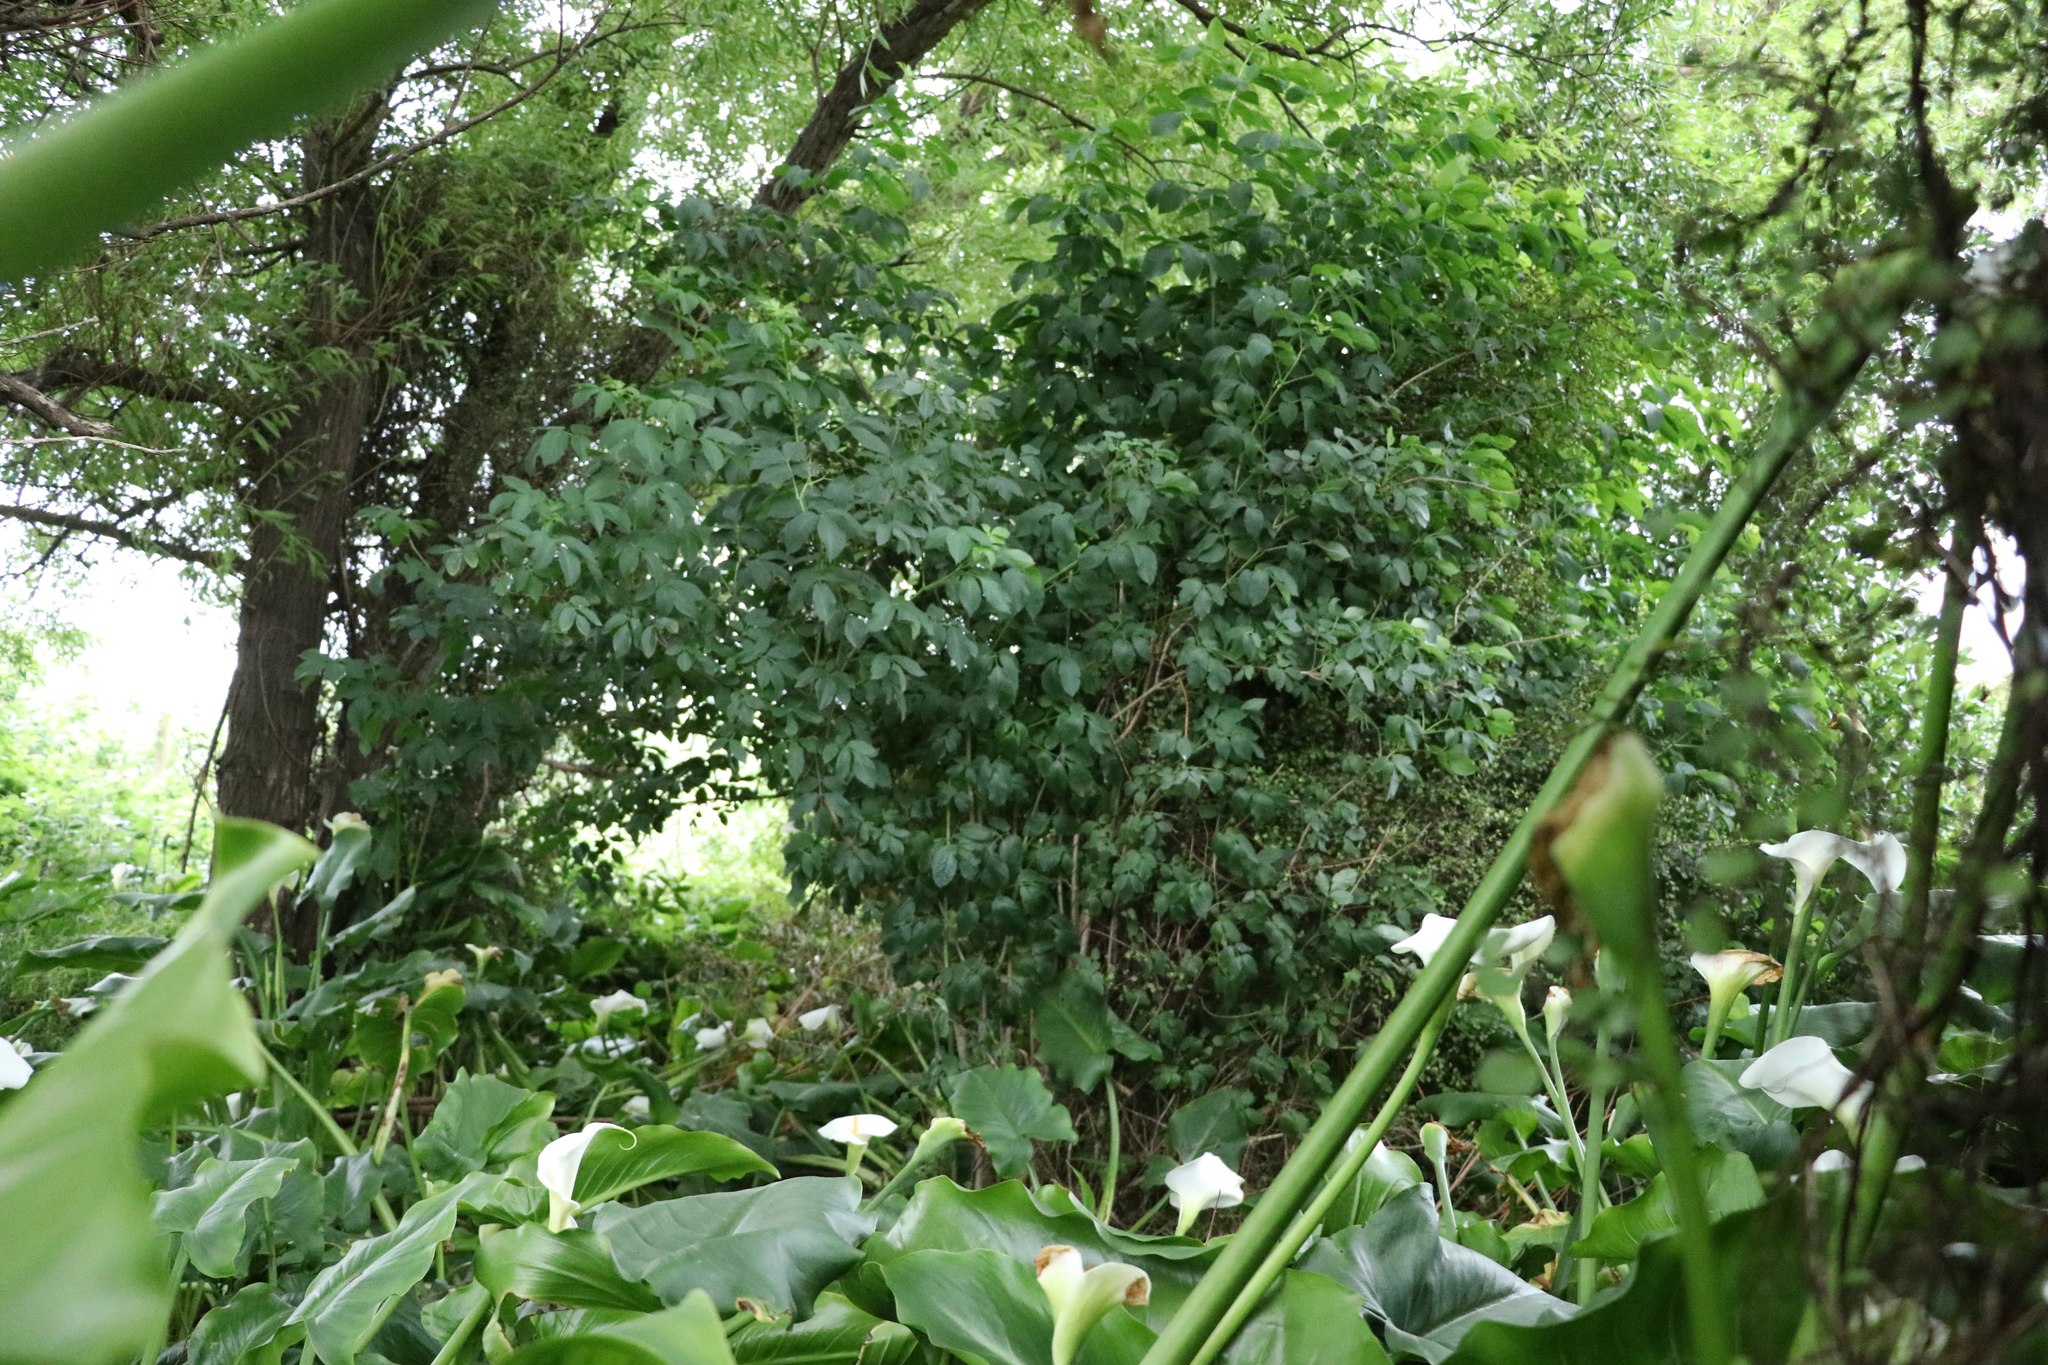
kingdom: Plantae
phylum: Tracheophyta
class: Magnoliopsida
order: Dipsacales
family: Viburnaceae
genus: Sambucus
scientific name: Sambucus nigra
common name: Elder
